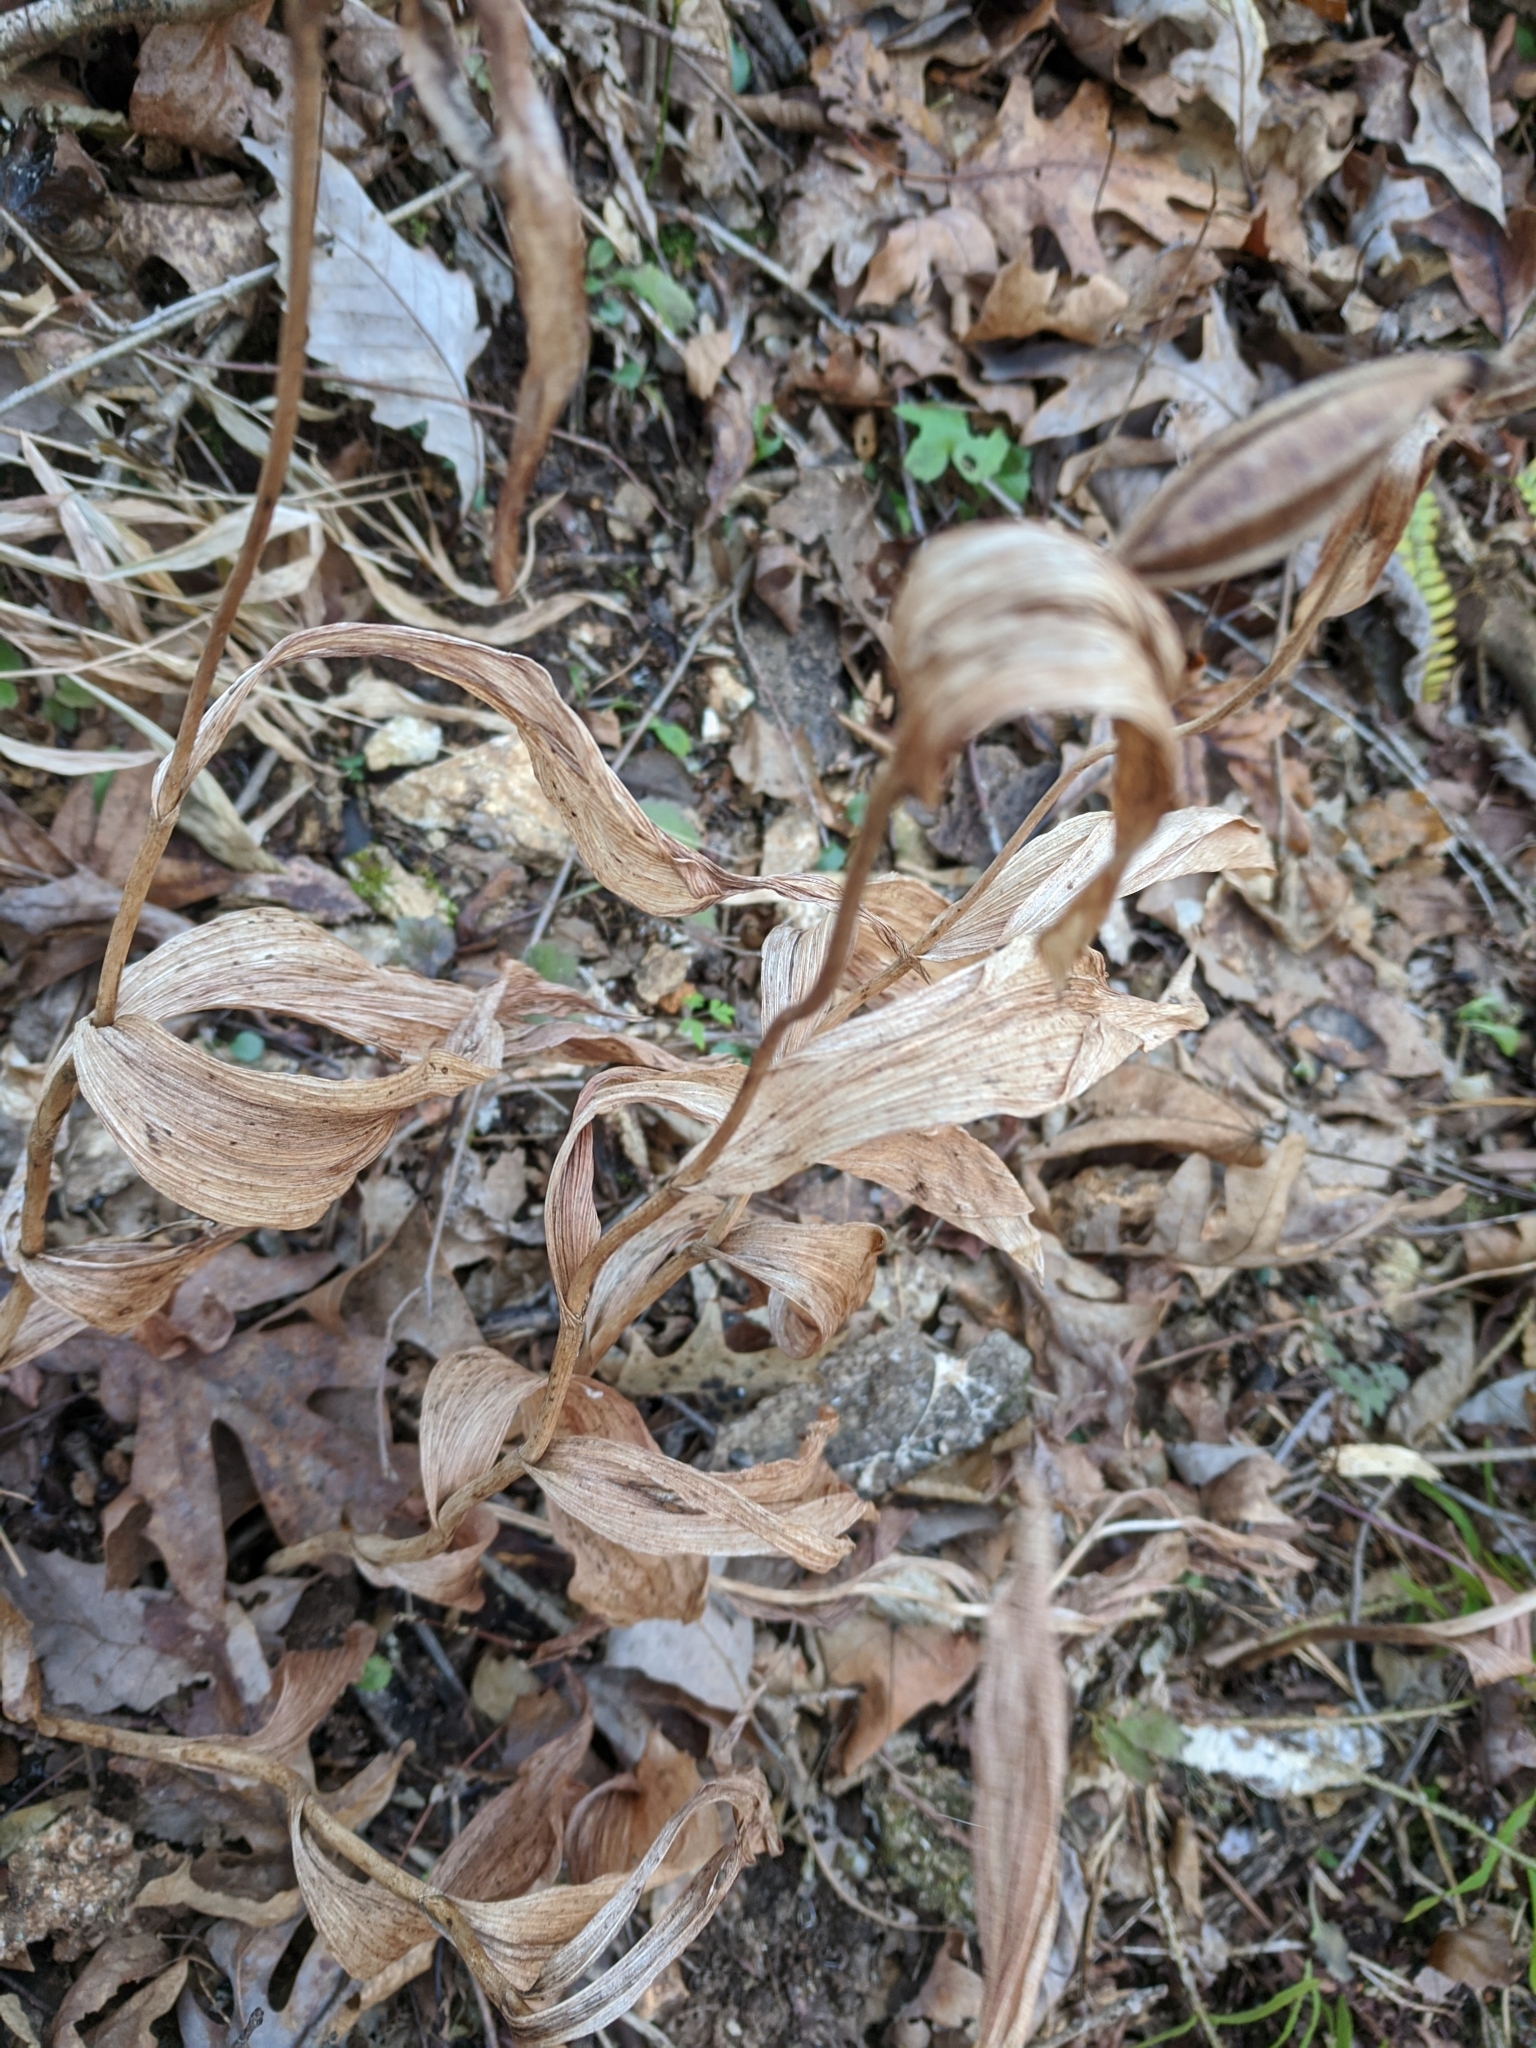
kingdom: Plantae
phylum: Tracheophyta
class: Liliopsida
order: Asparagales
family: Orchidaceae
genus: Cypripedium
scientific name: Cypripedium parviflorum
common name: American yellow lady's-slipper
